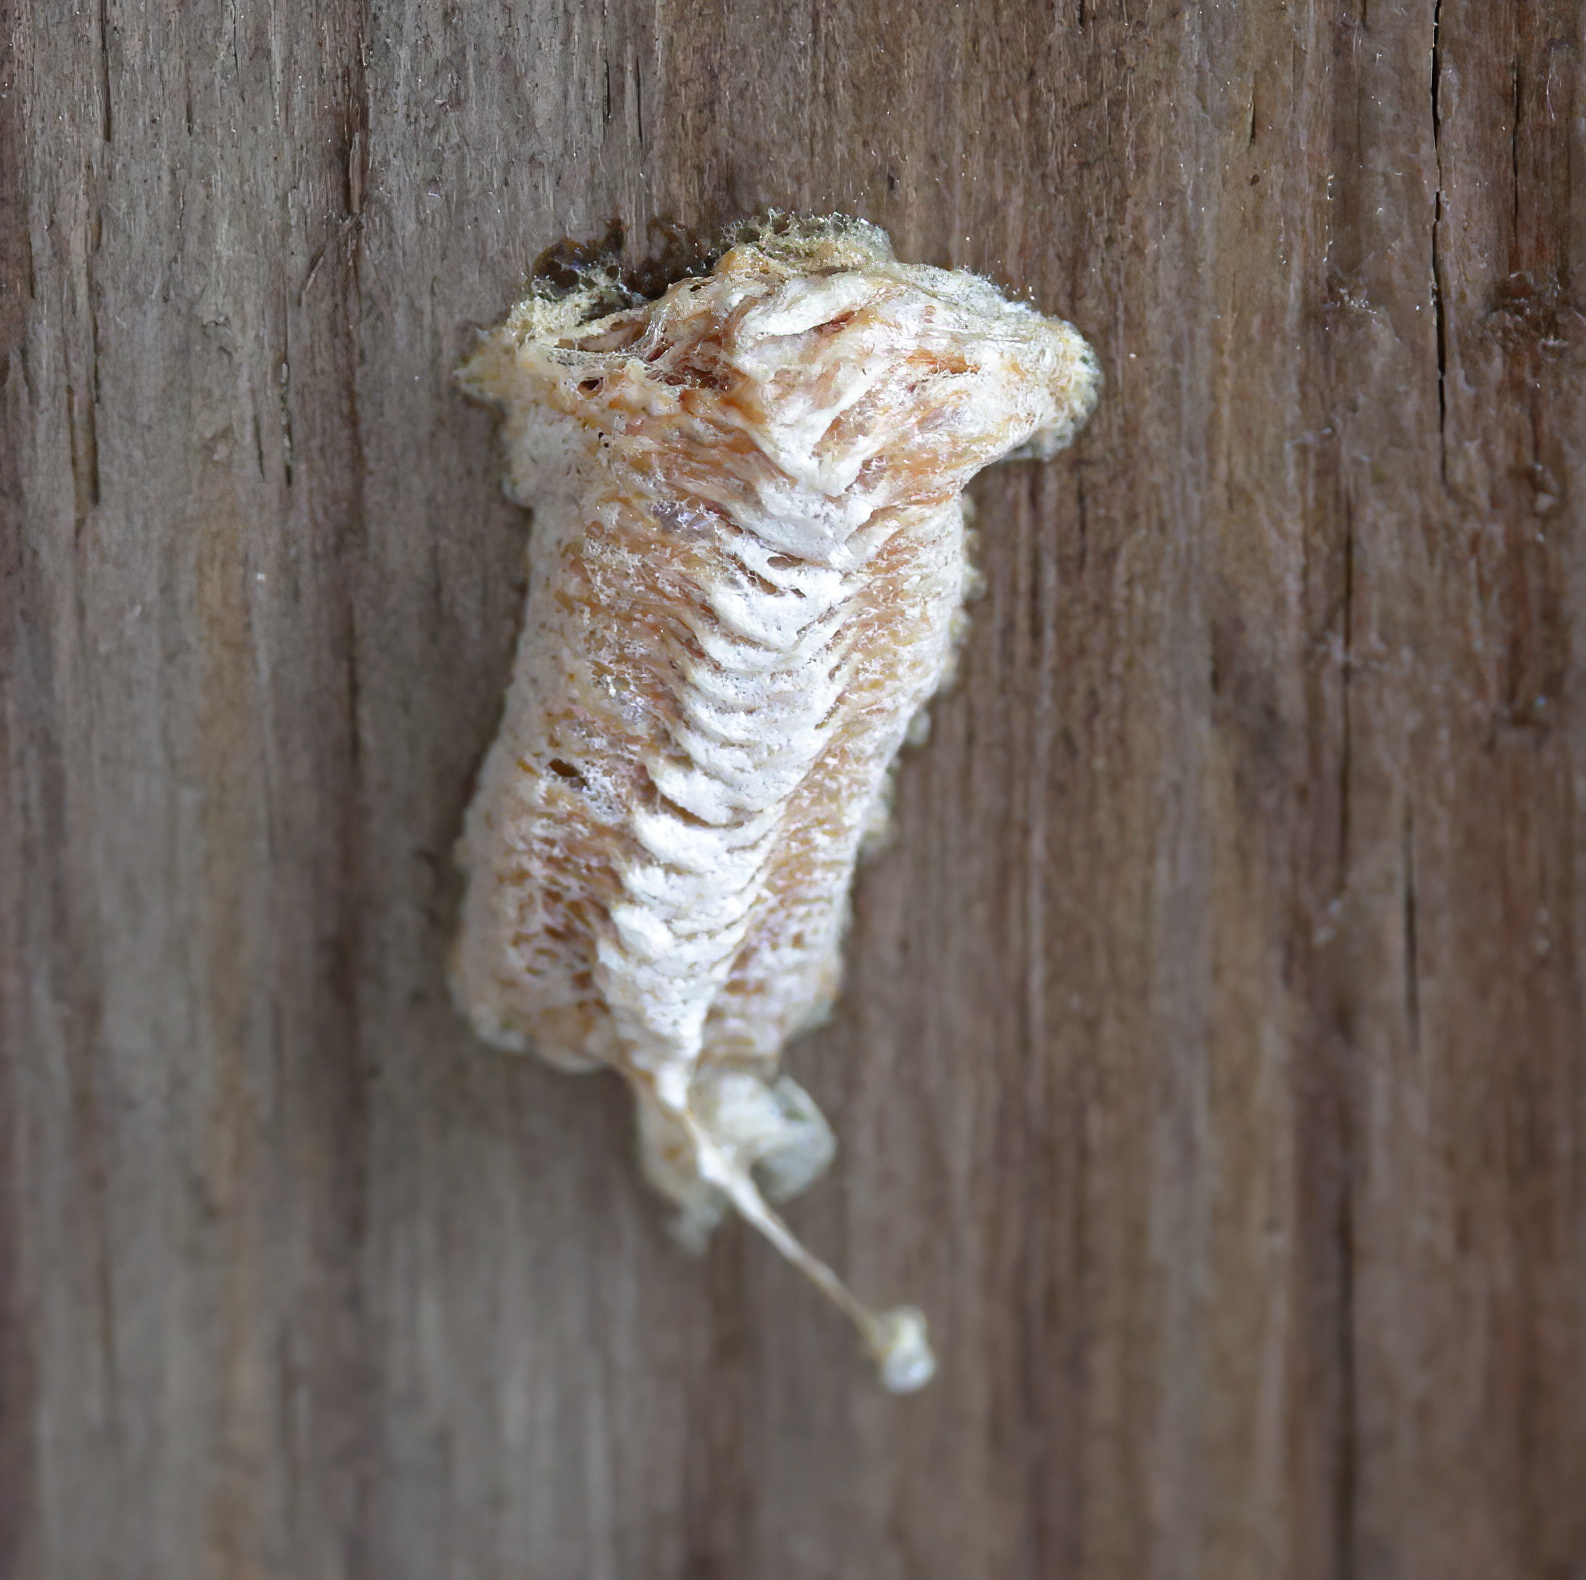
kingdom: Animalia
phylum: Arthropoda
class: Insecta
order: Mantodea
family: Mantidae
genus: Stagmomantis
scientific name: Stagmomantis carolina
